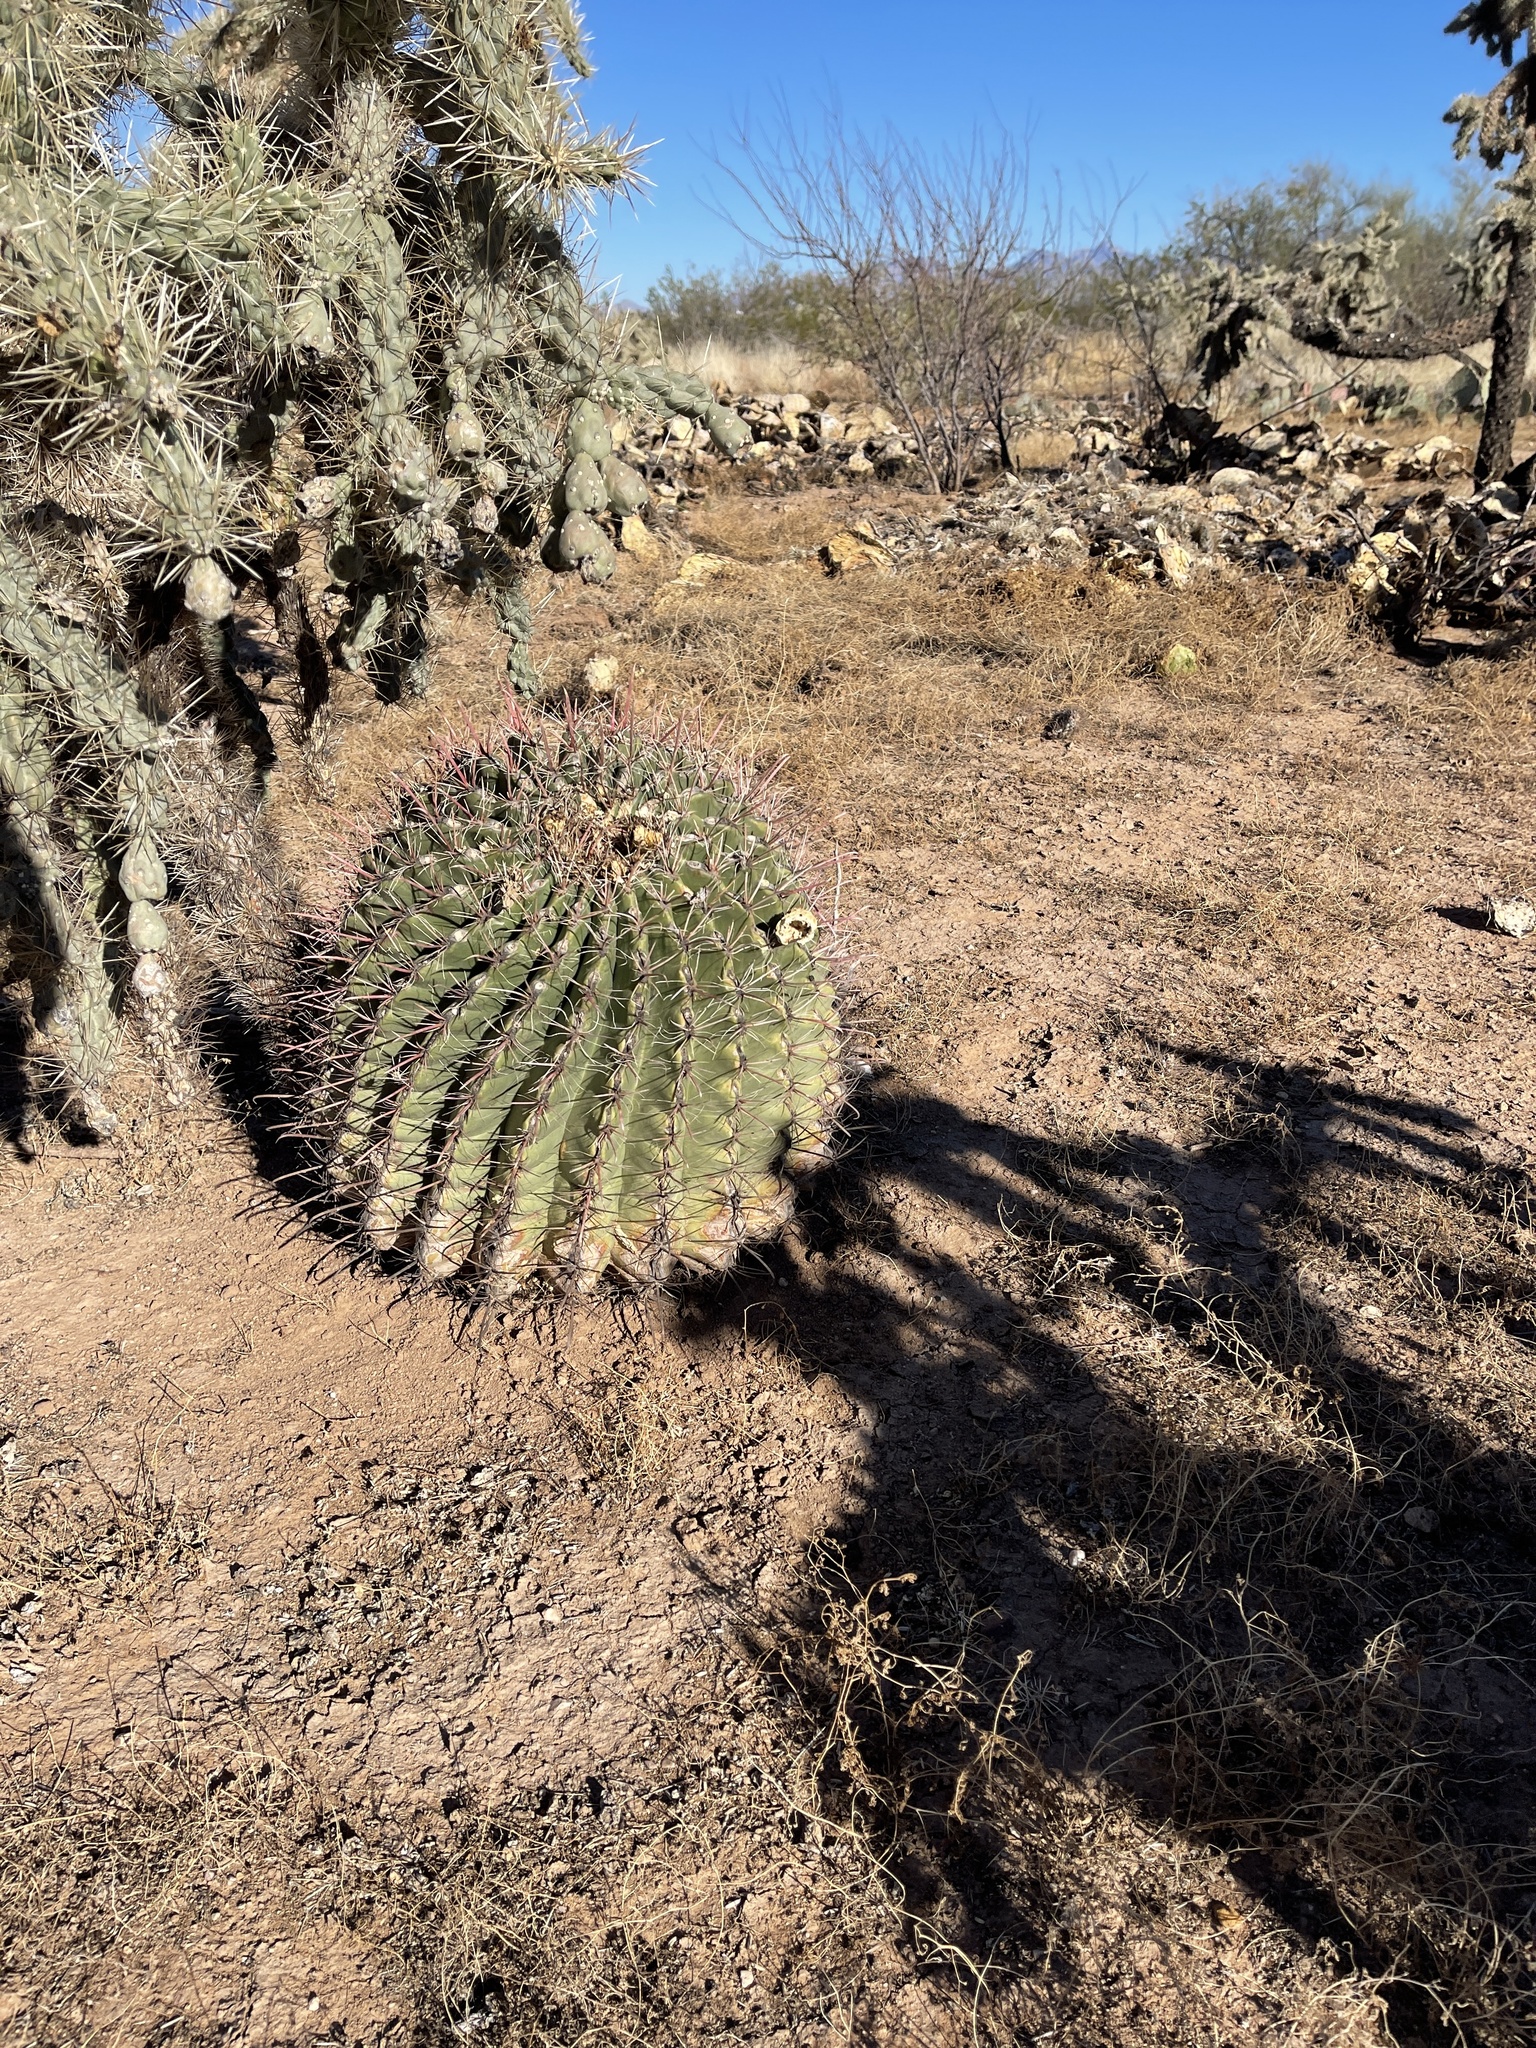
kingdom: Plantae
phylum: Tracheophyta
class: Magnoliopsida
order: Caryophyllales
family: Cactaceae
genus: Ferocactus
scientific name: Ferocactus wislizeni
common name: Candy barrel cactus
